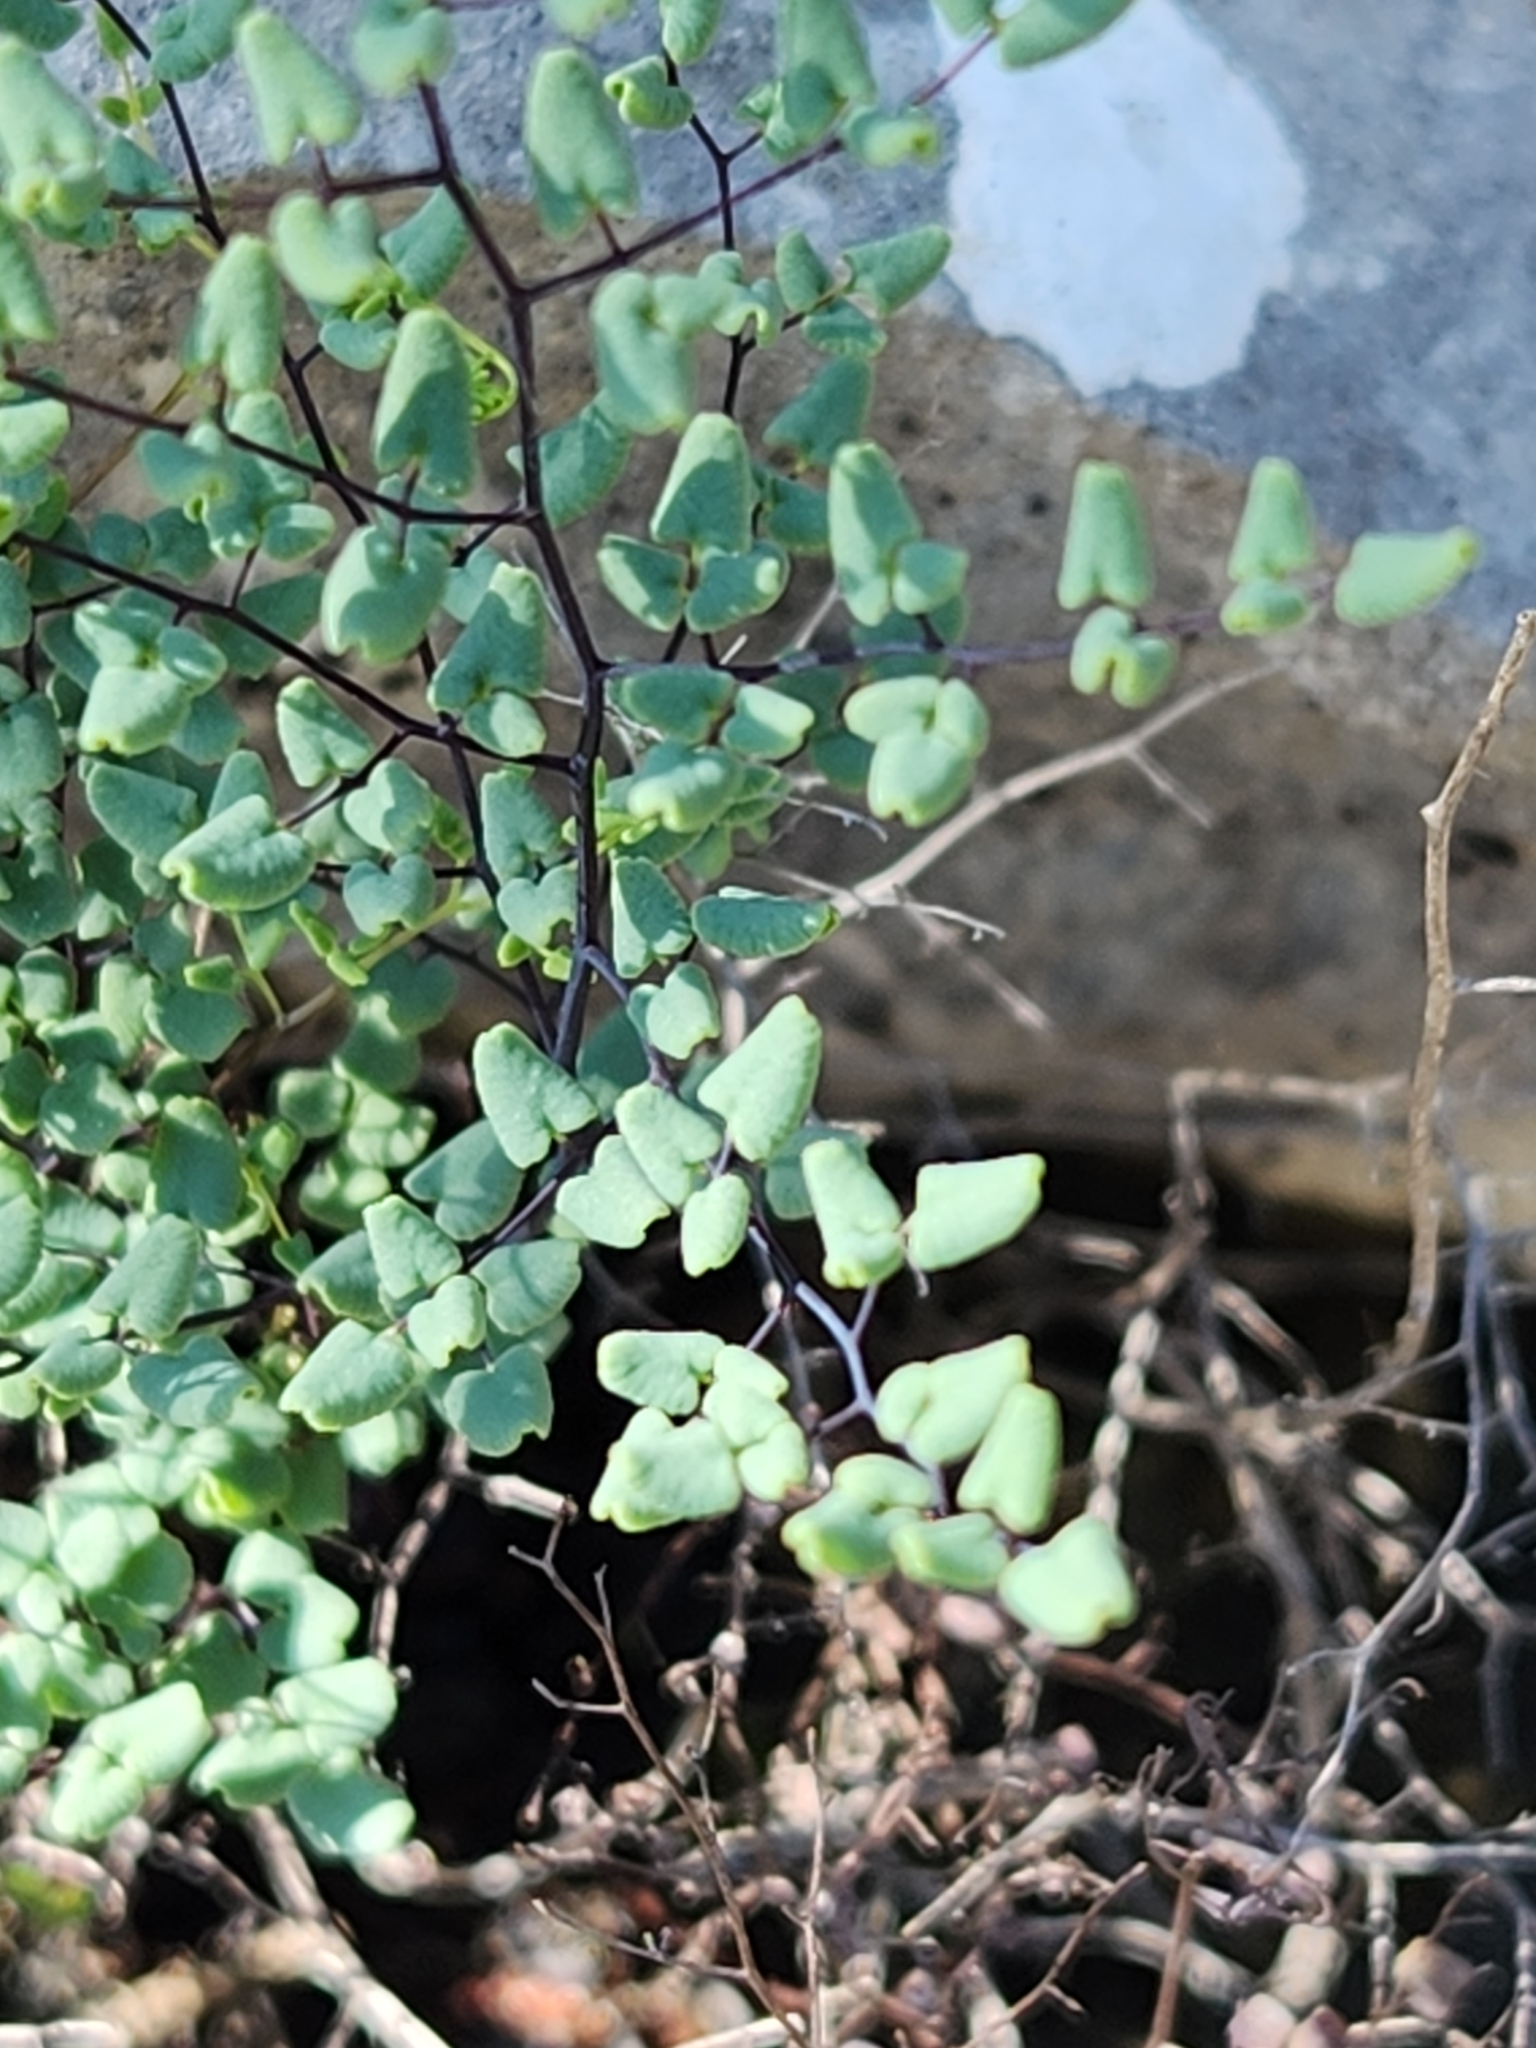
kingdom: Plantae
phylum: Tracheophyta
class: Polypodiopsida
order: Polypodiales
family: Pteridaceae
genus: Argyrochosma
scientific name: Argyrochosma microphylla
